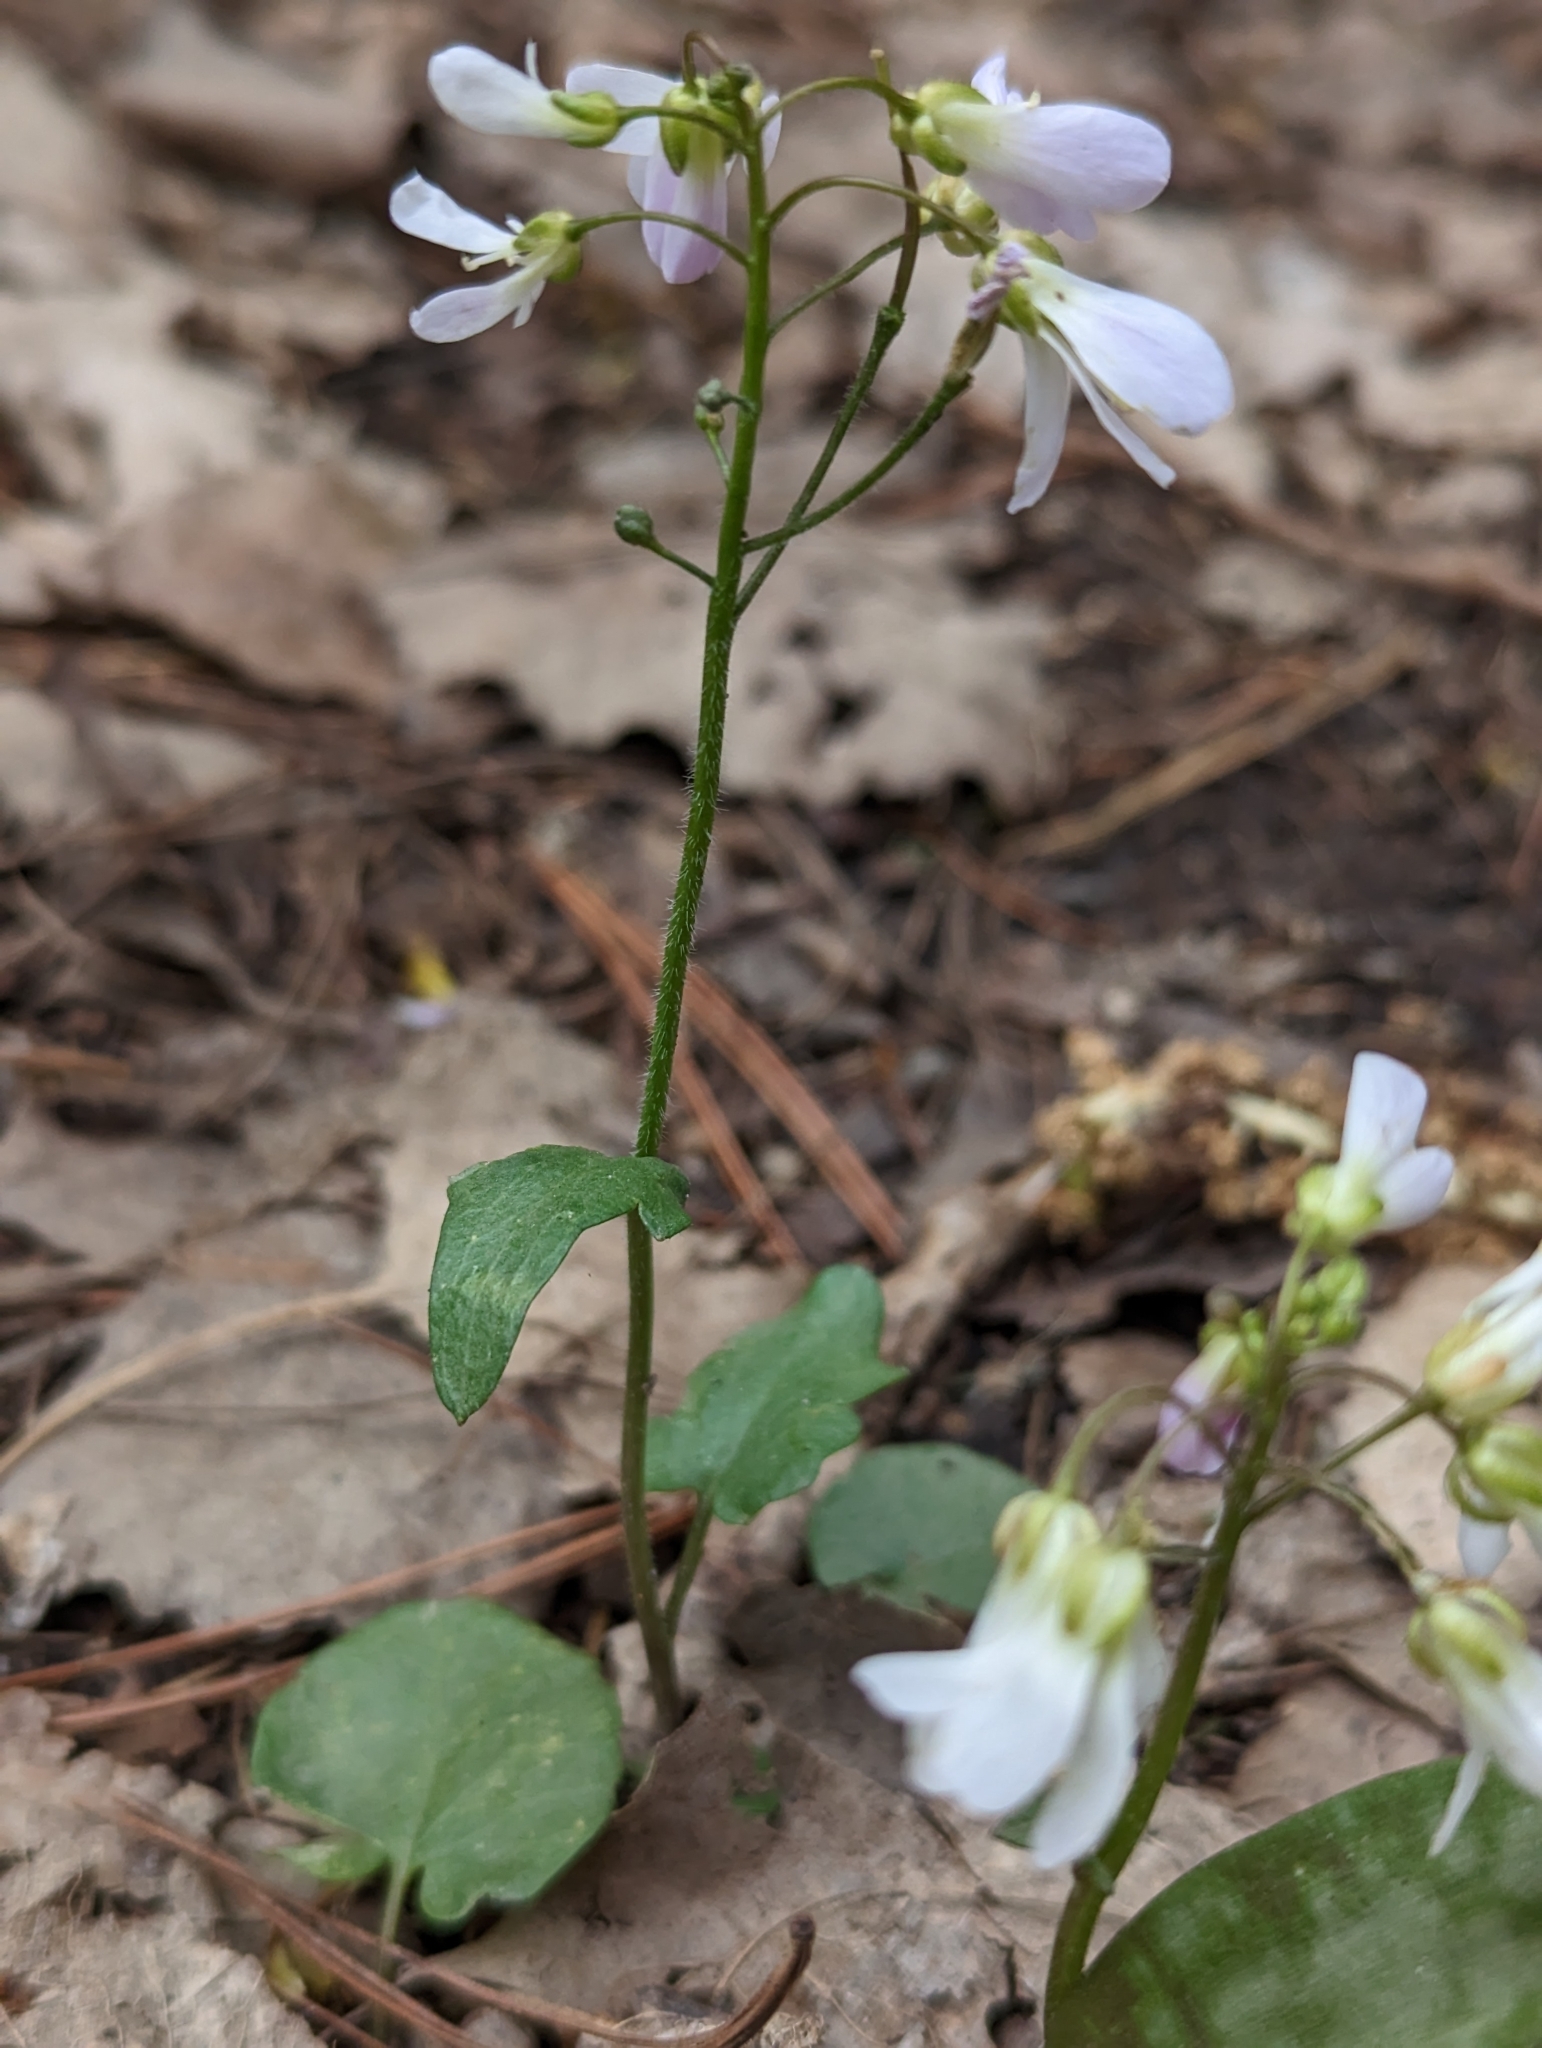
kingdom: Plantae
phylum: Tracheophyta
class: Magnoliopsida
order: Brassicales
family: Brassicaceae
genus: Cardamine
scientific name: Cardamine douglassii
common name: Purple cress
